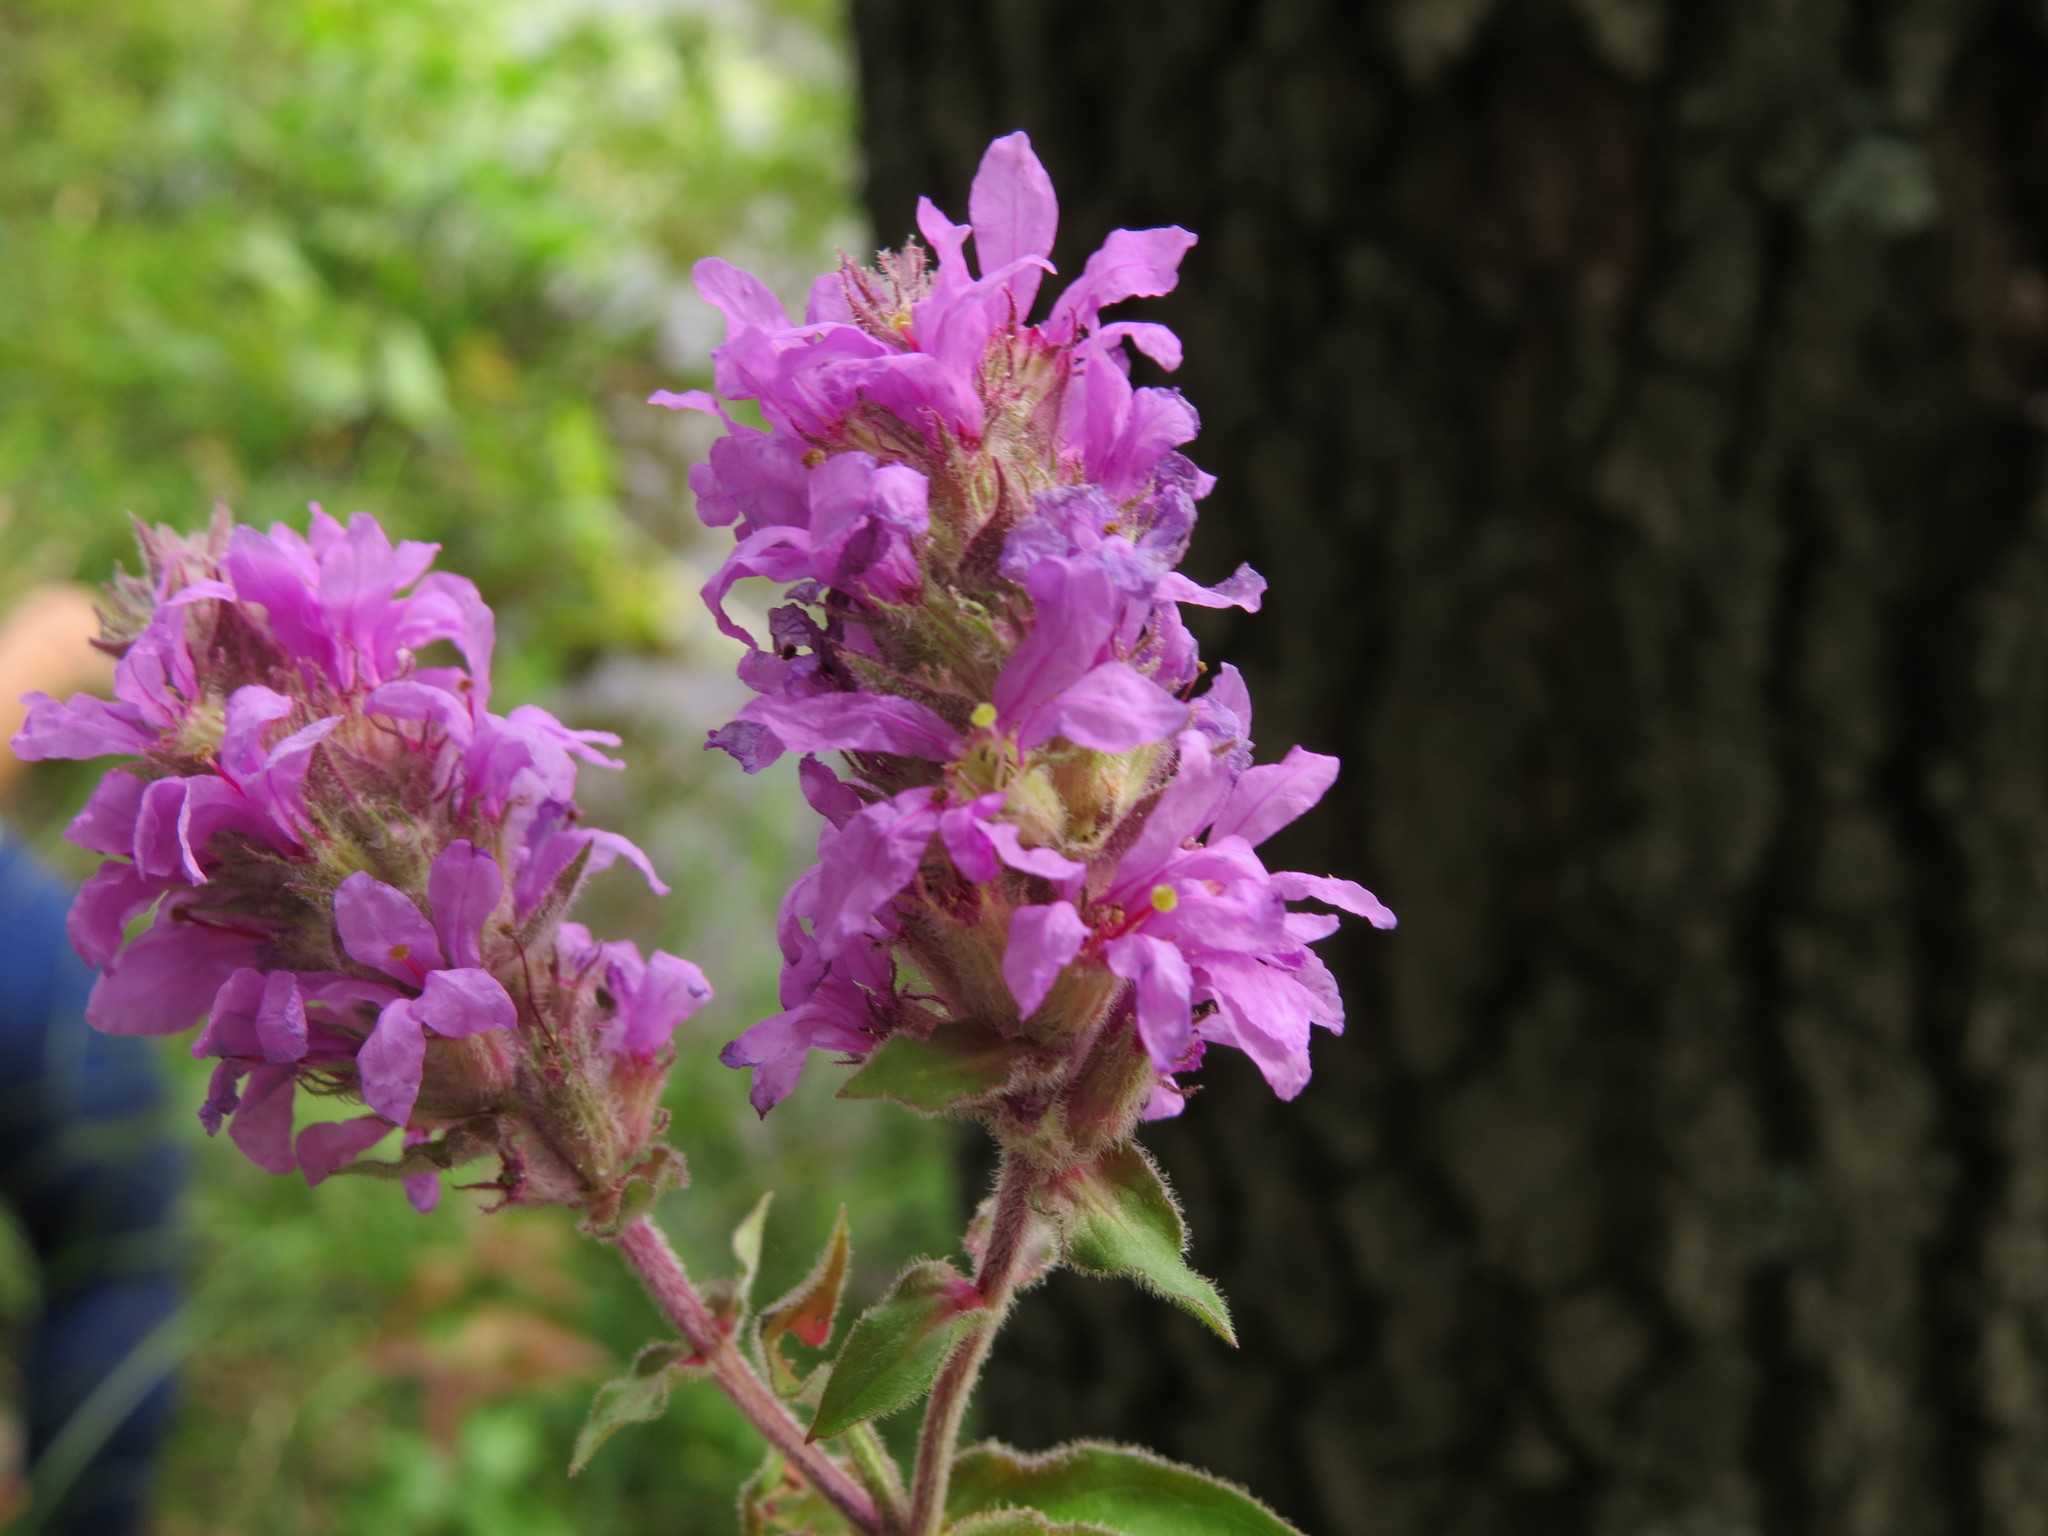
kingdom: Plantae
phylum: Tracheophyta
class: Magnoliopsida
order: Myrtales
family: Lythraceae
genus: Lythrum
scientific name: Lythrum salicaria
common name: Purple loosestrife
